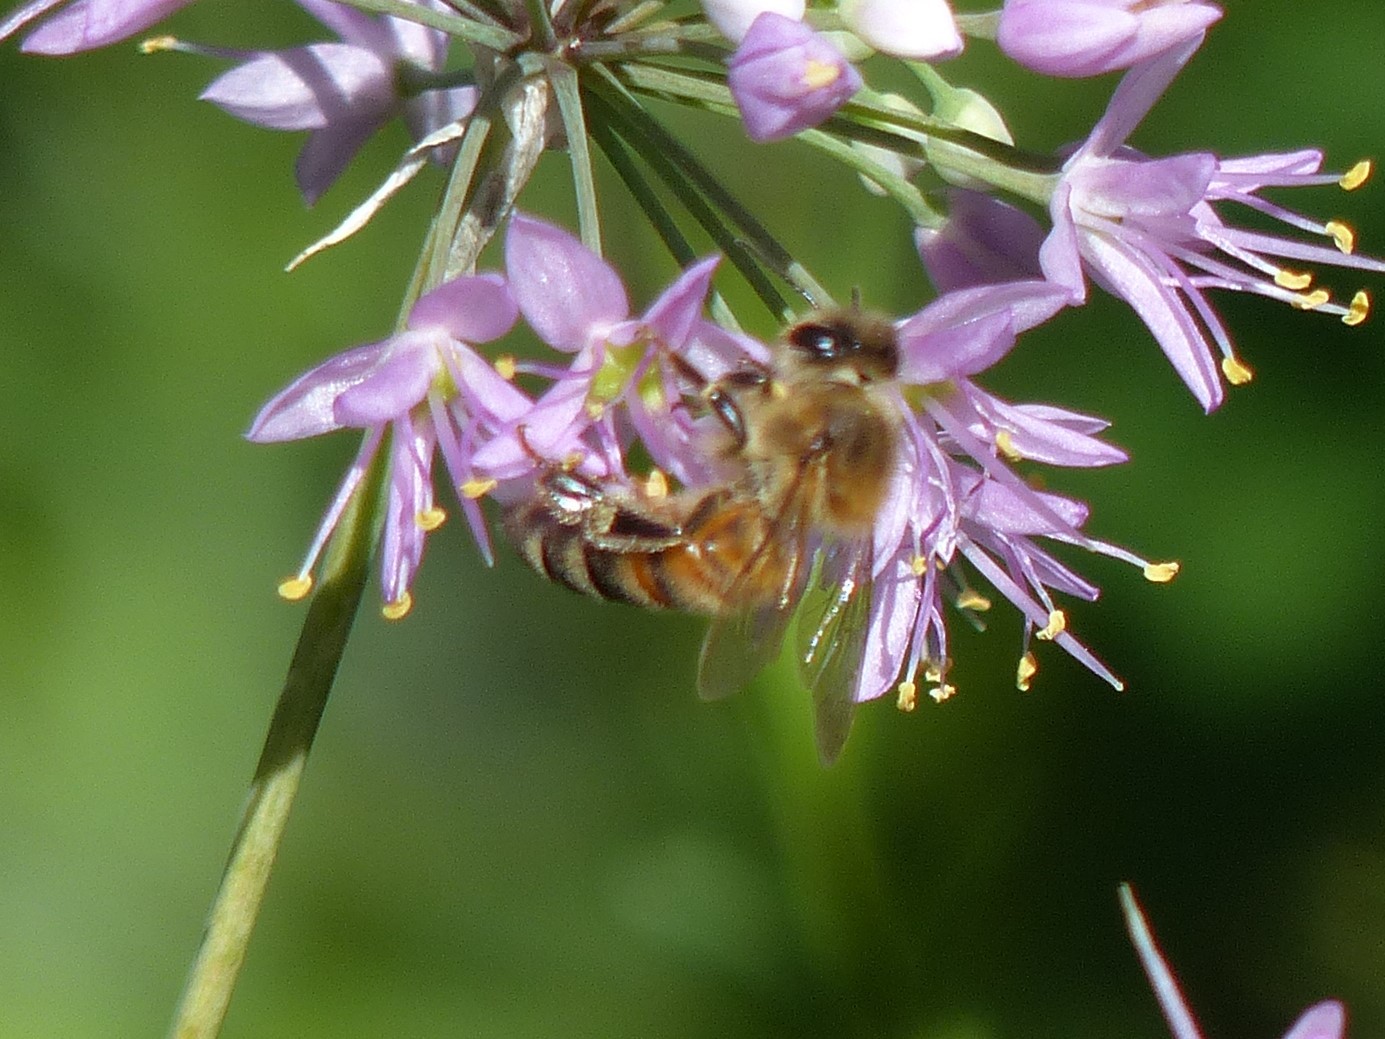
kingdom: Animalia
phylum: Arthropoda
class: Insecta
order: Hymenoptera
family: Apidae
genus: Apis
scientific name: Apis mellifera
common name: Honey bee
